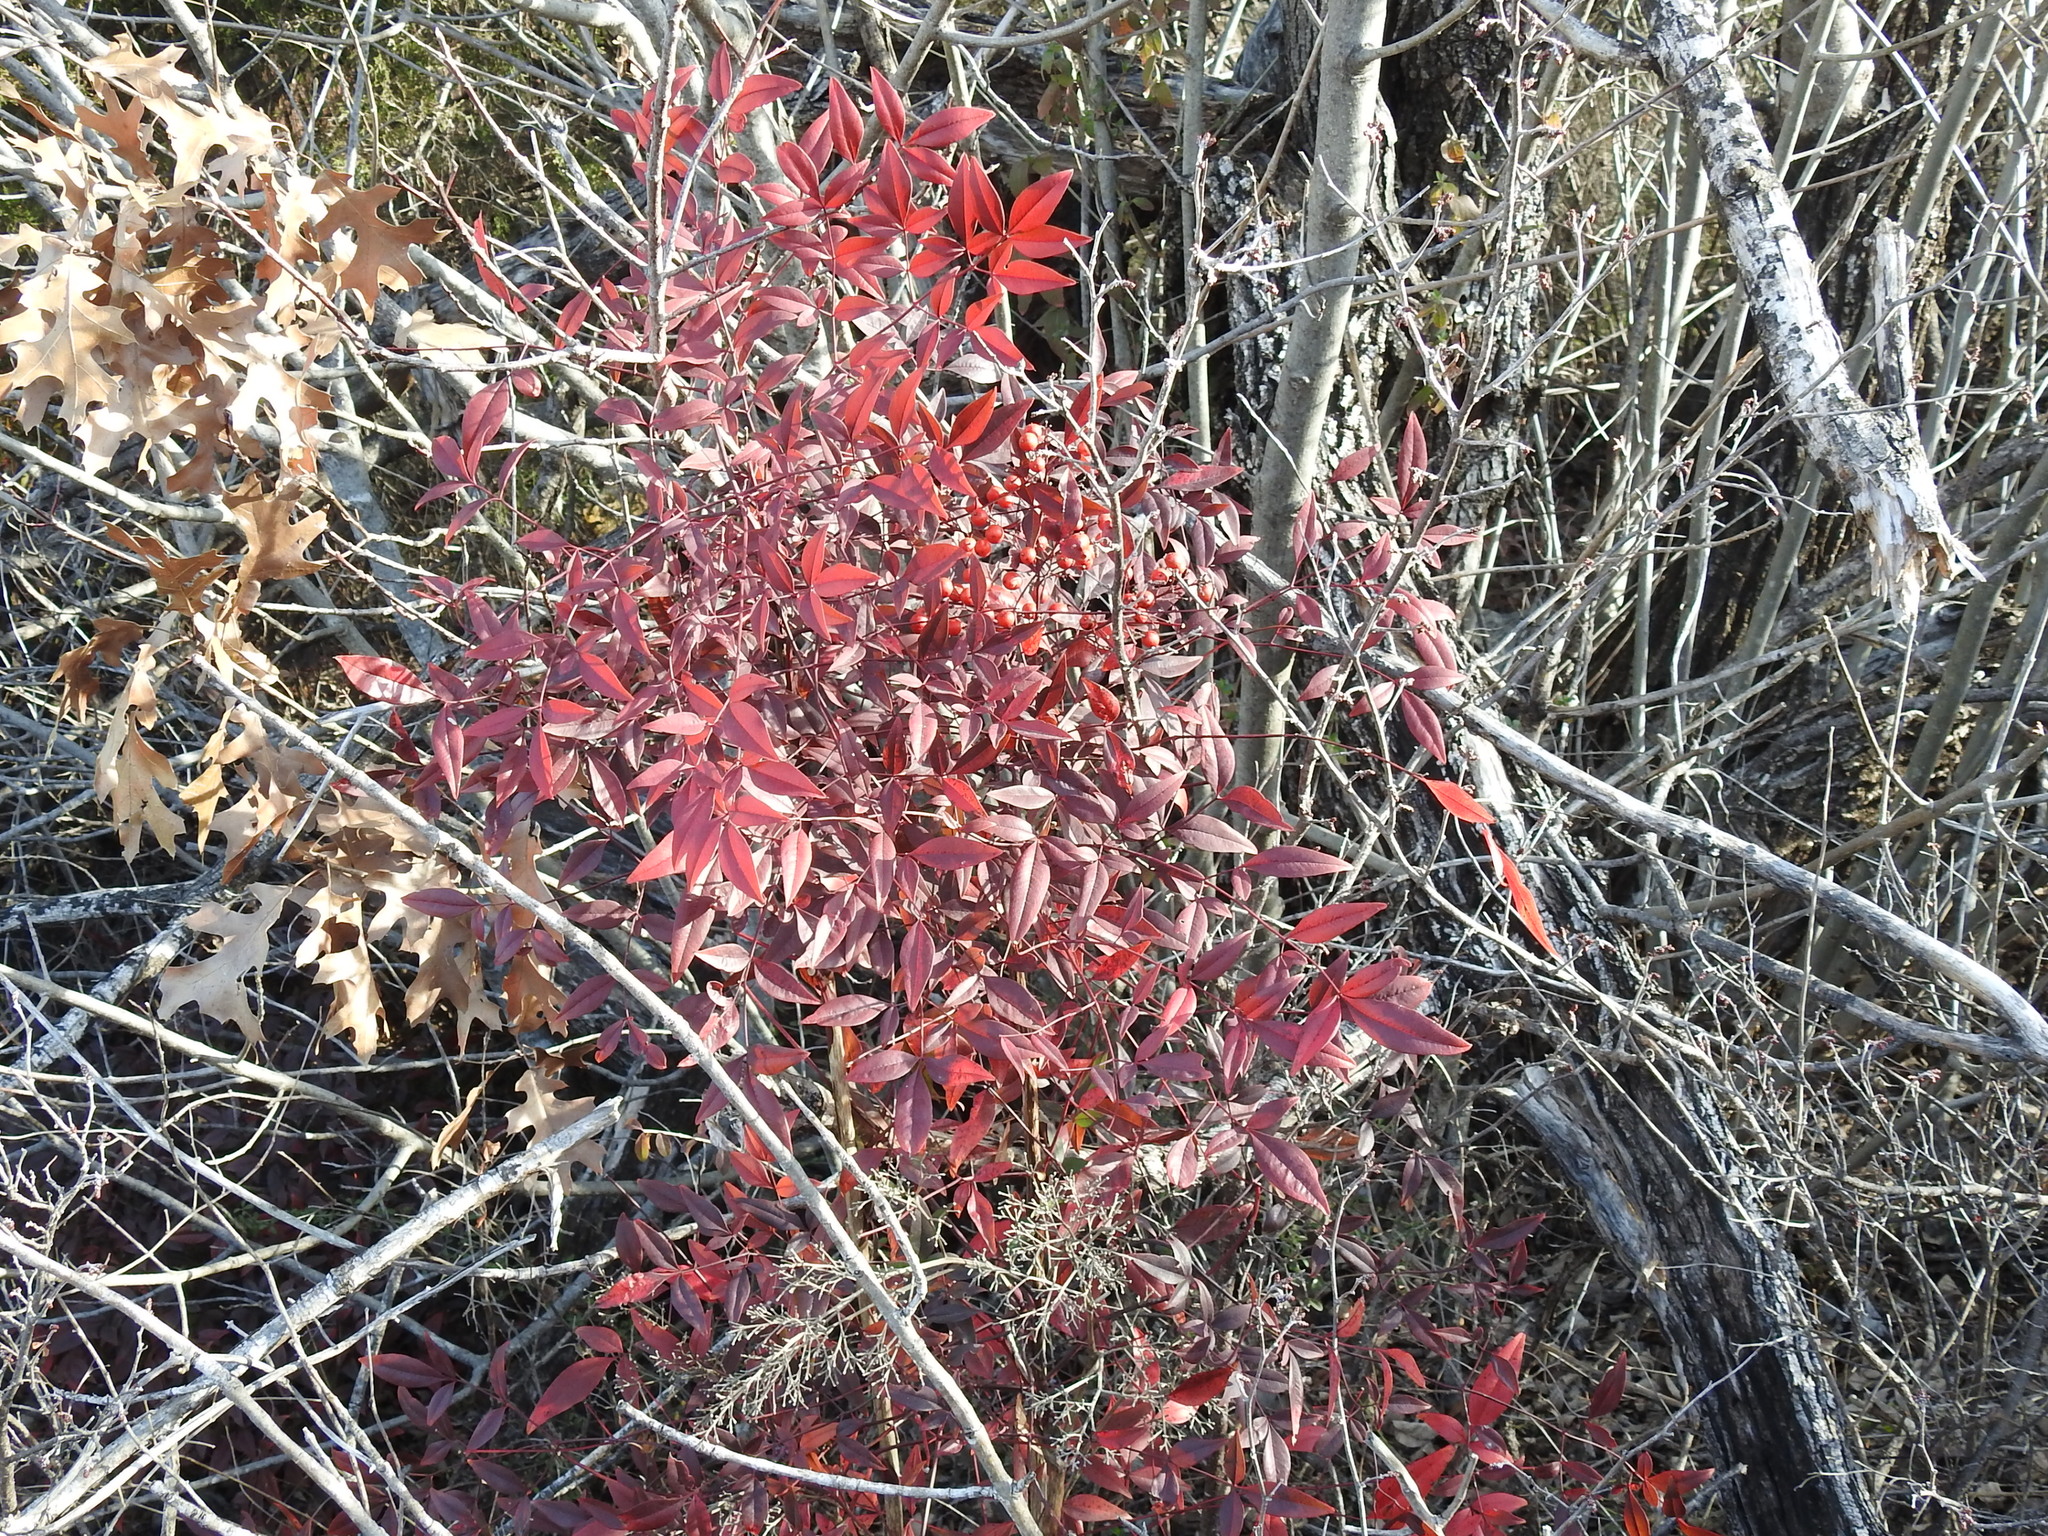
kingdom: Plantae
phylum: Tracheophyta
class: Magnoliopsida
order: Ranunculales
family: Berberidaceae
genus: Nandina
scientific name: Nandina domestica
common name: Sacred bamboo
